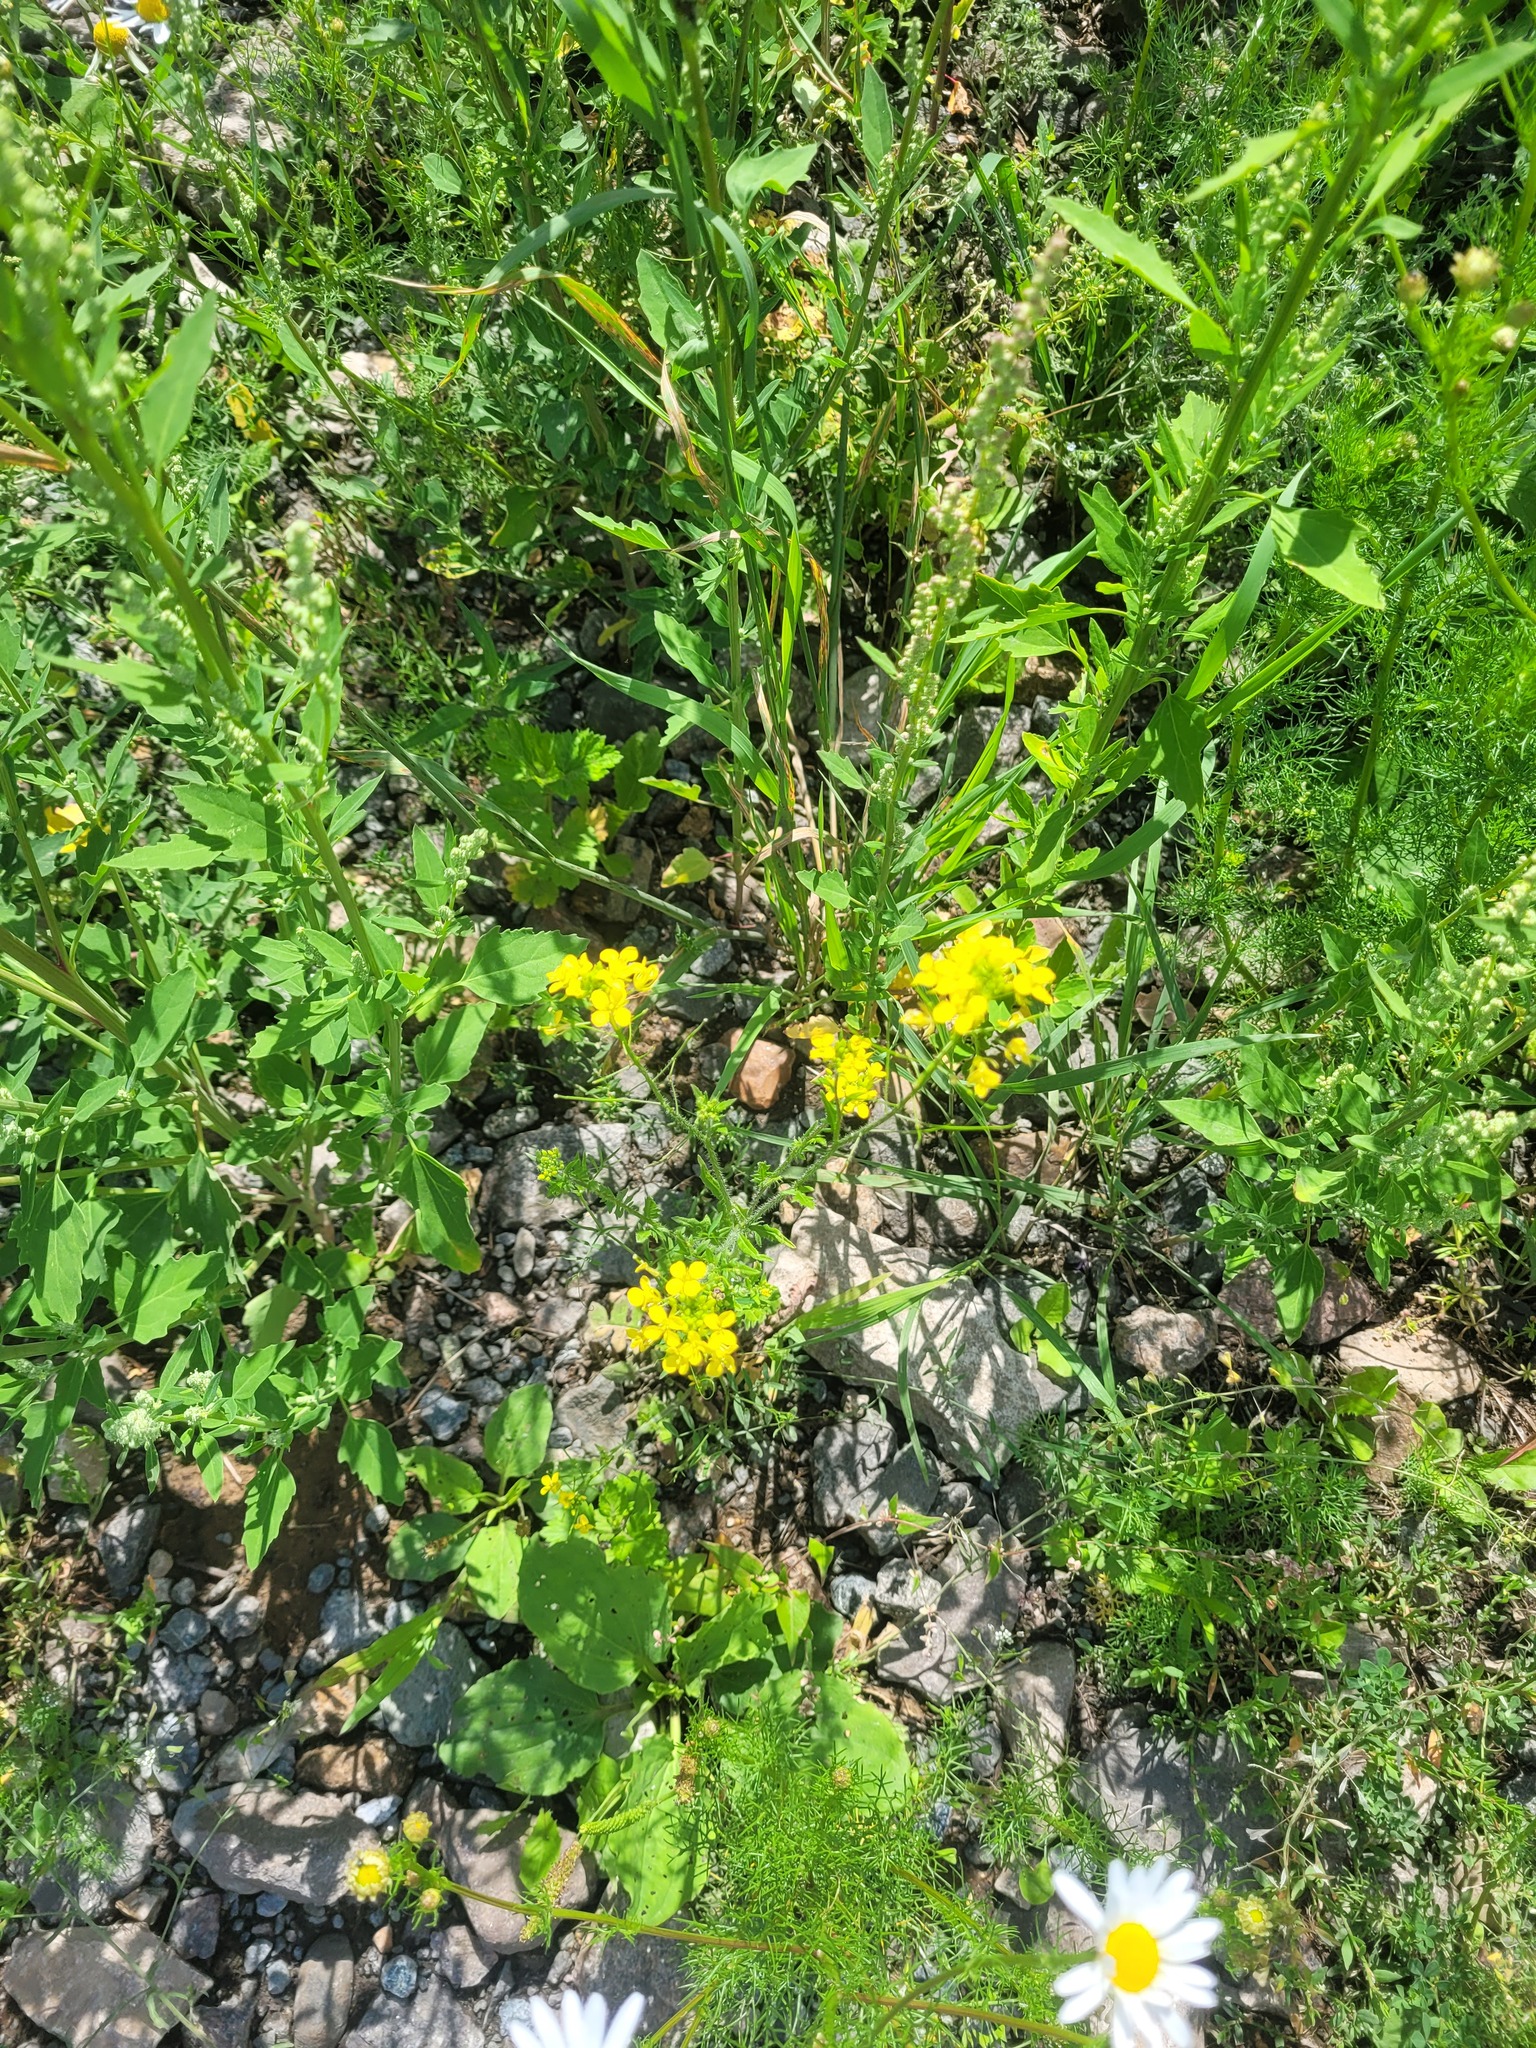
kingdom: Plantae
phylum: Tracheophyta
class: Magnoliopsida
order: Brassicales
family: Brassicaceae
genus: Sisymbrium
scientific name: Sisymbrium loeselii
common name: False london-rocket
